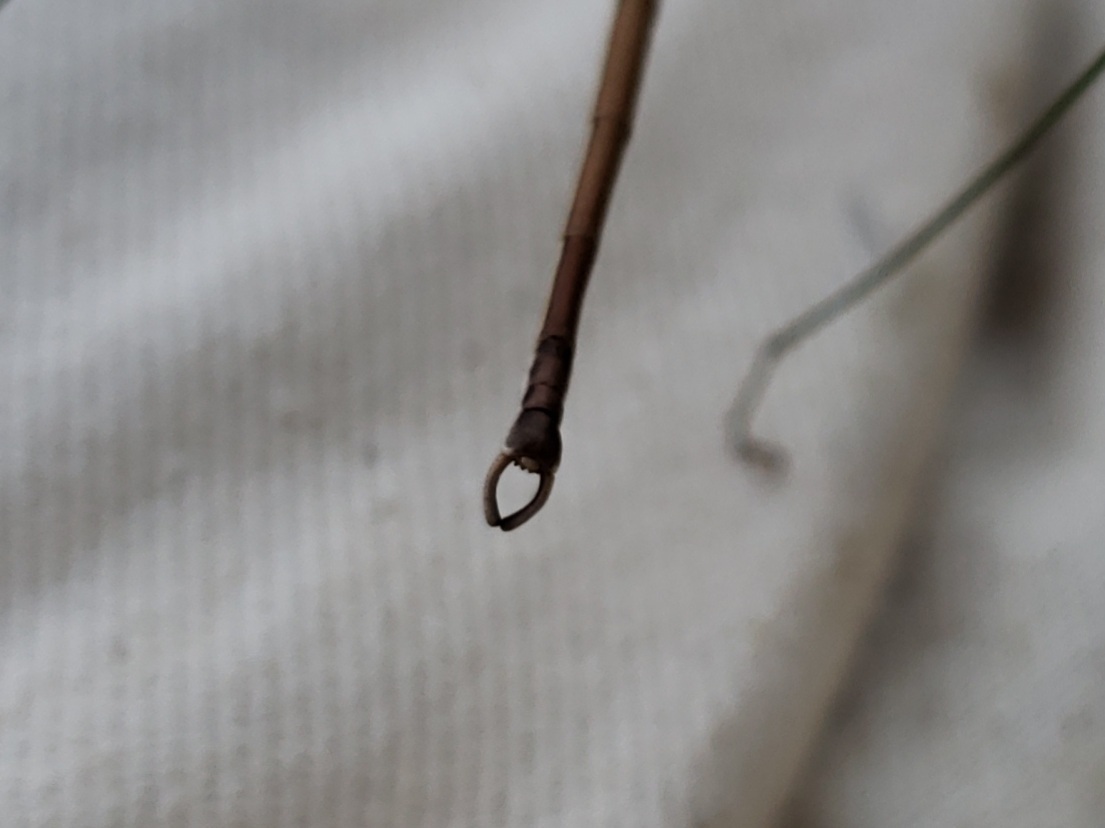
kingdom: Animalia
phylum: Arthropoda
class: Insecta
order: Phasmida
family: Diapheromeridae
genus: Manomera
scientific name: Manomera brachypyga
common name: Short-rumped walkingstick
